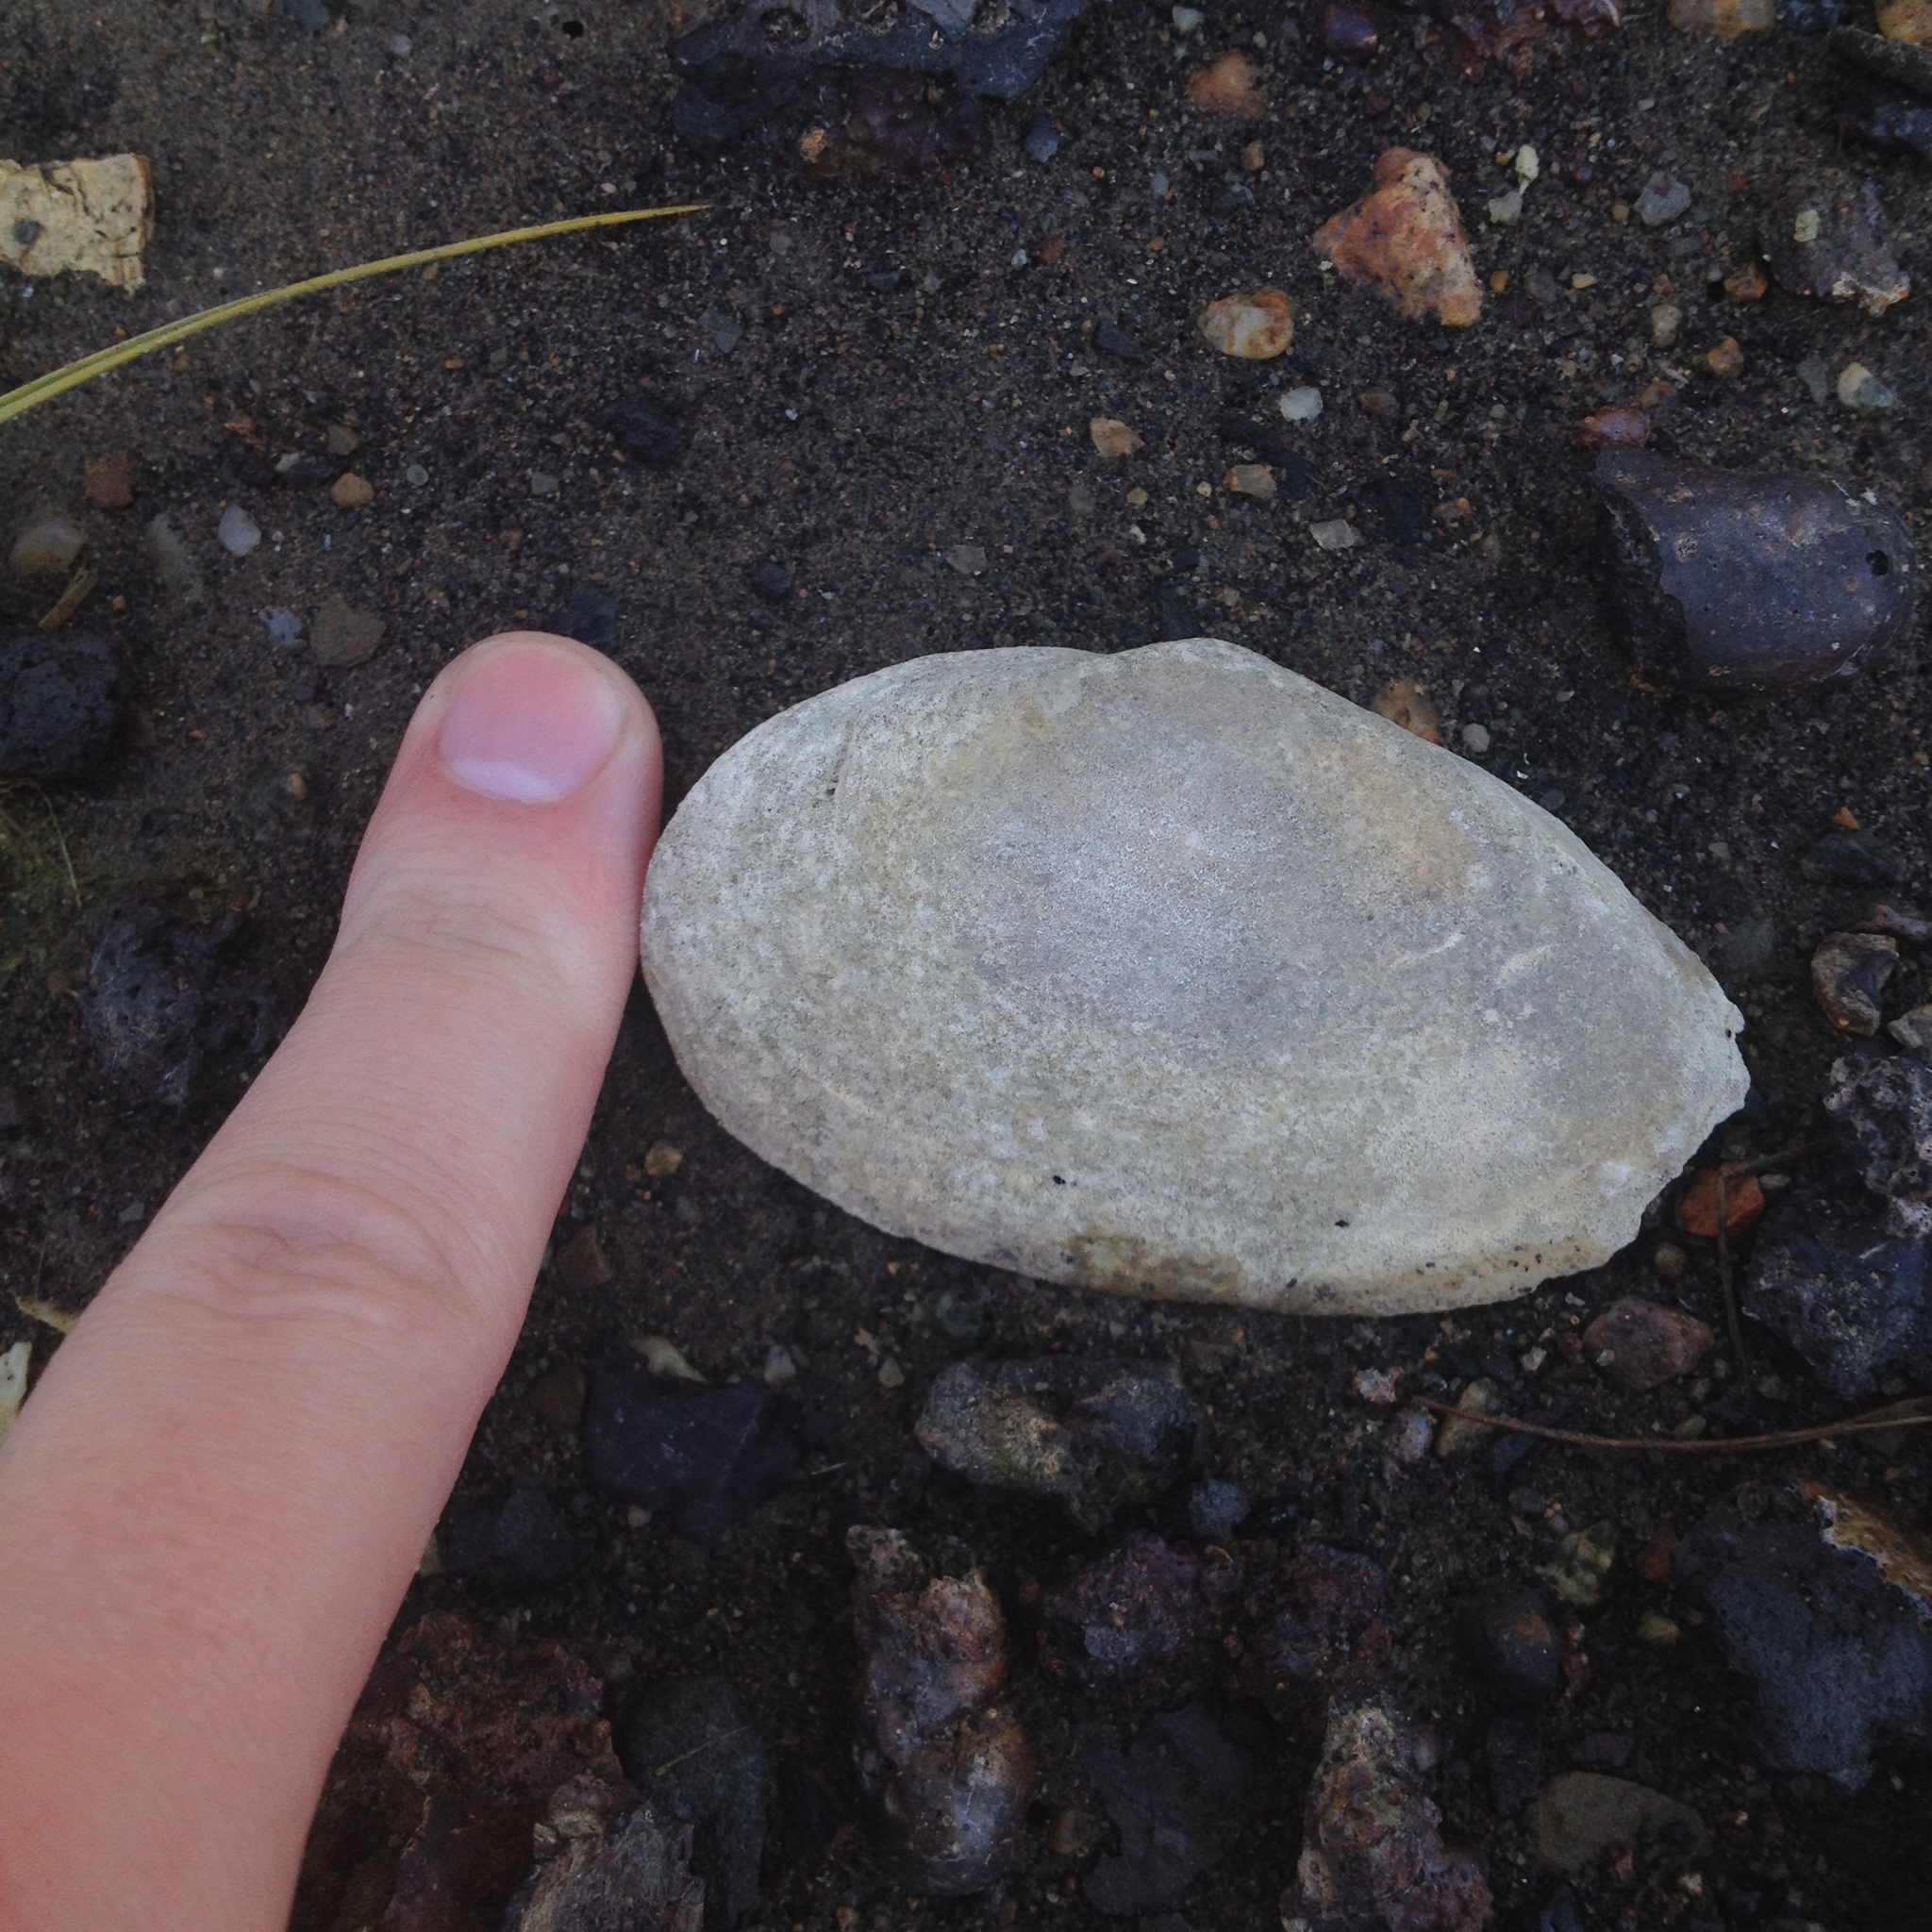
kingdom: Animalia
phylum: Mollusca
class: Bivalvia
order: Myida
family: Myidae
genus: Mya
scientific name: Mya arenaria
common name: Soft-shelled clam
